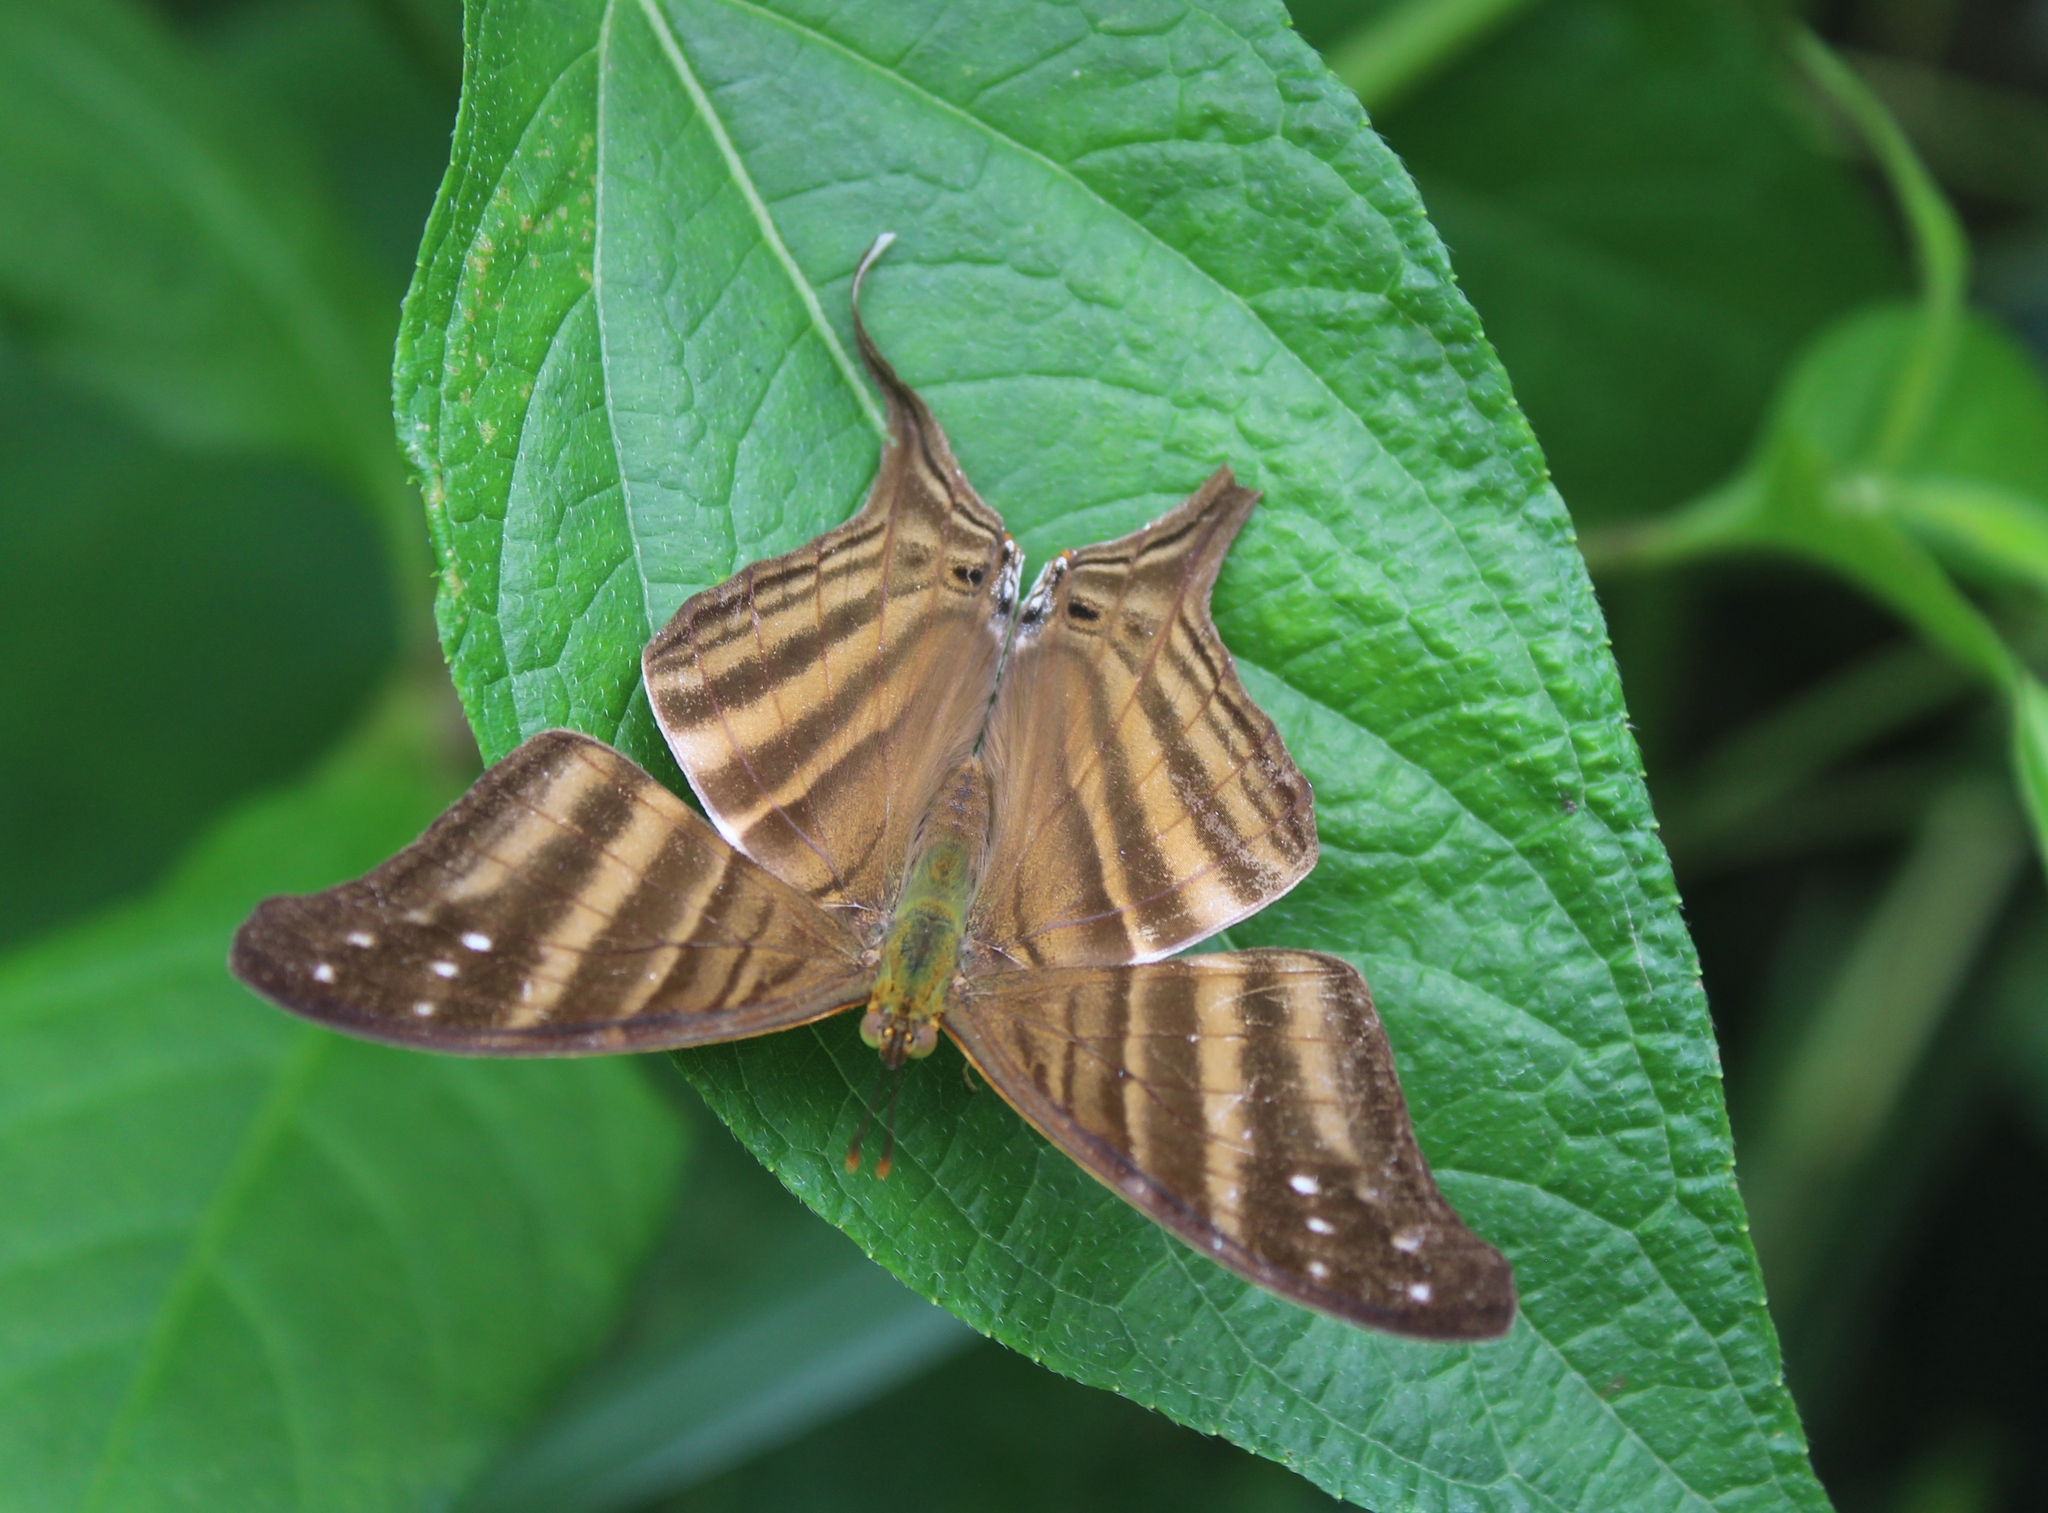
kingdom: Animalia
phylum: Arthropoda
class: Insecta
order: Lepidoptera
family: Nymphalidae
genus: Marpesia
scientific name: Marpesia chiron
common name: Many-banded daggerwing
